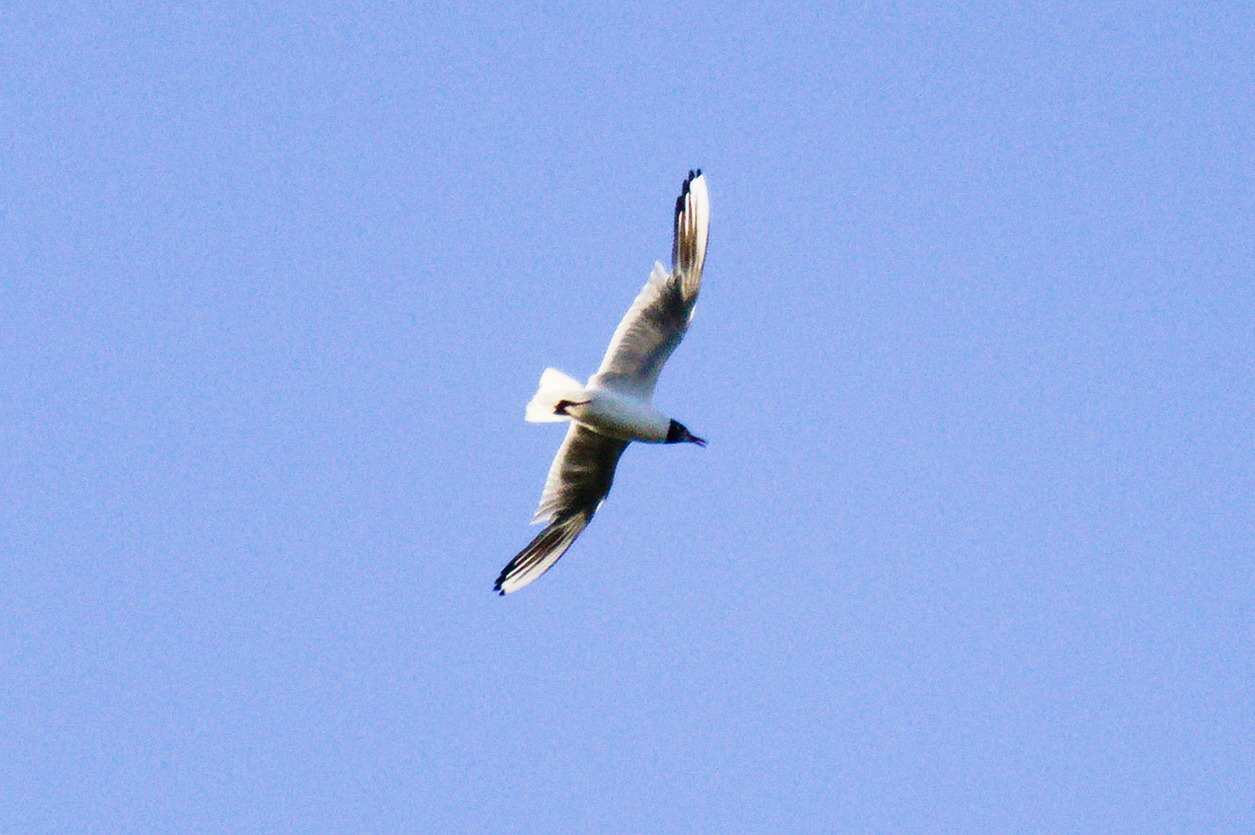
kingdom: Animalia
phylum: Chordata
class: Aves
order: Charadriiformes
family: Laridae
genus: Chroicocephalus
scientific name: Chroicocephalus ridibundus
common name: Black-headed gull
